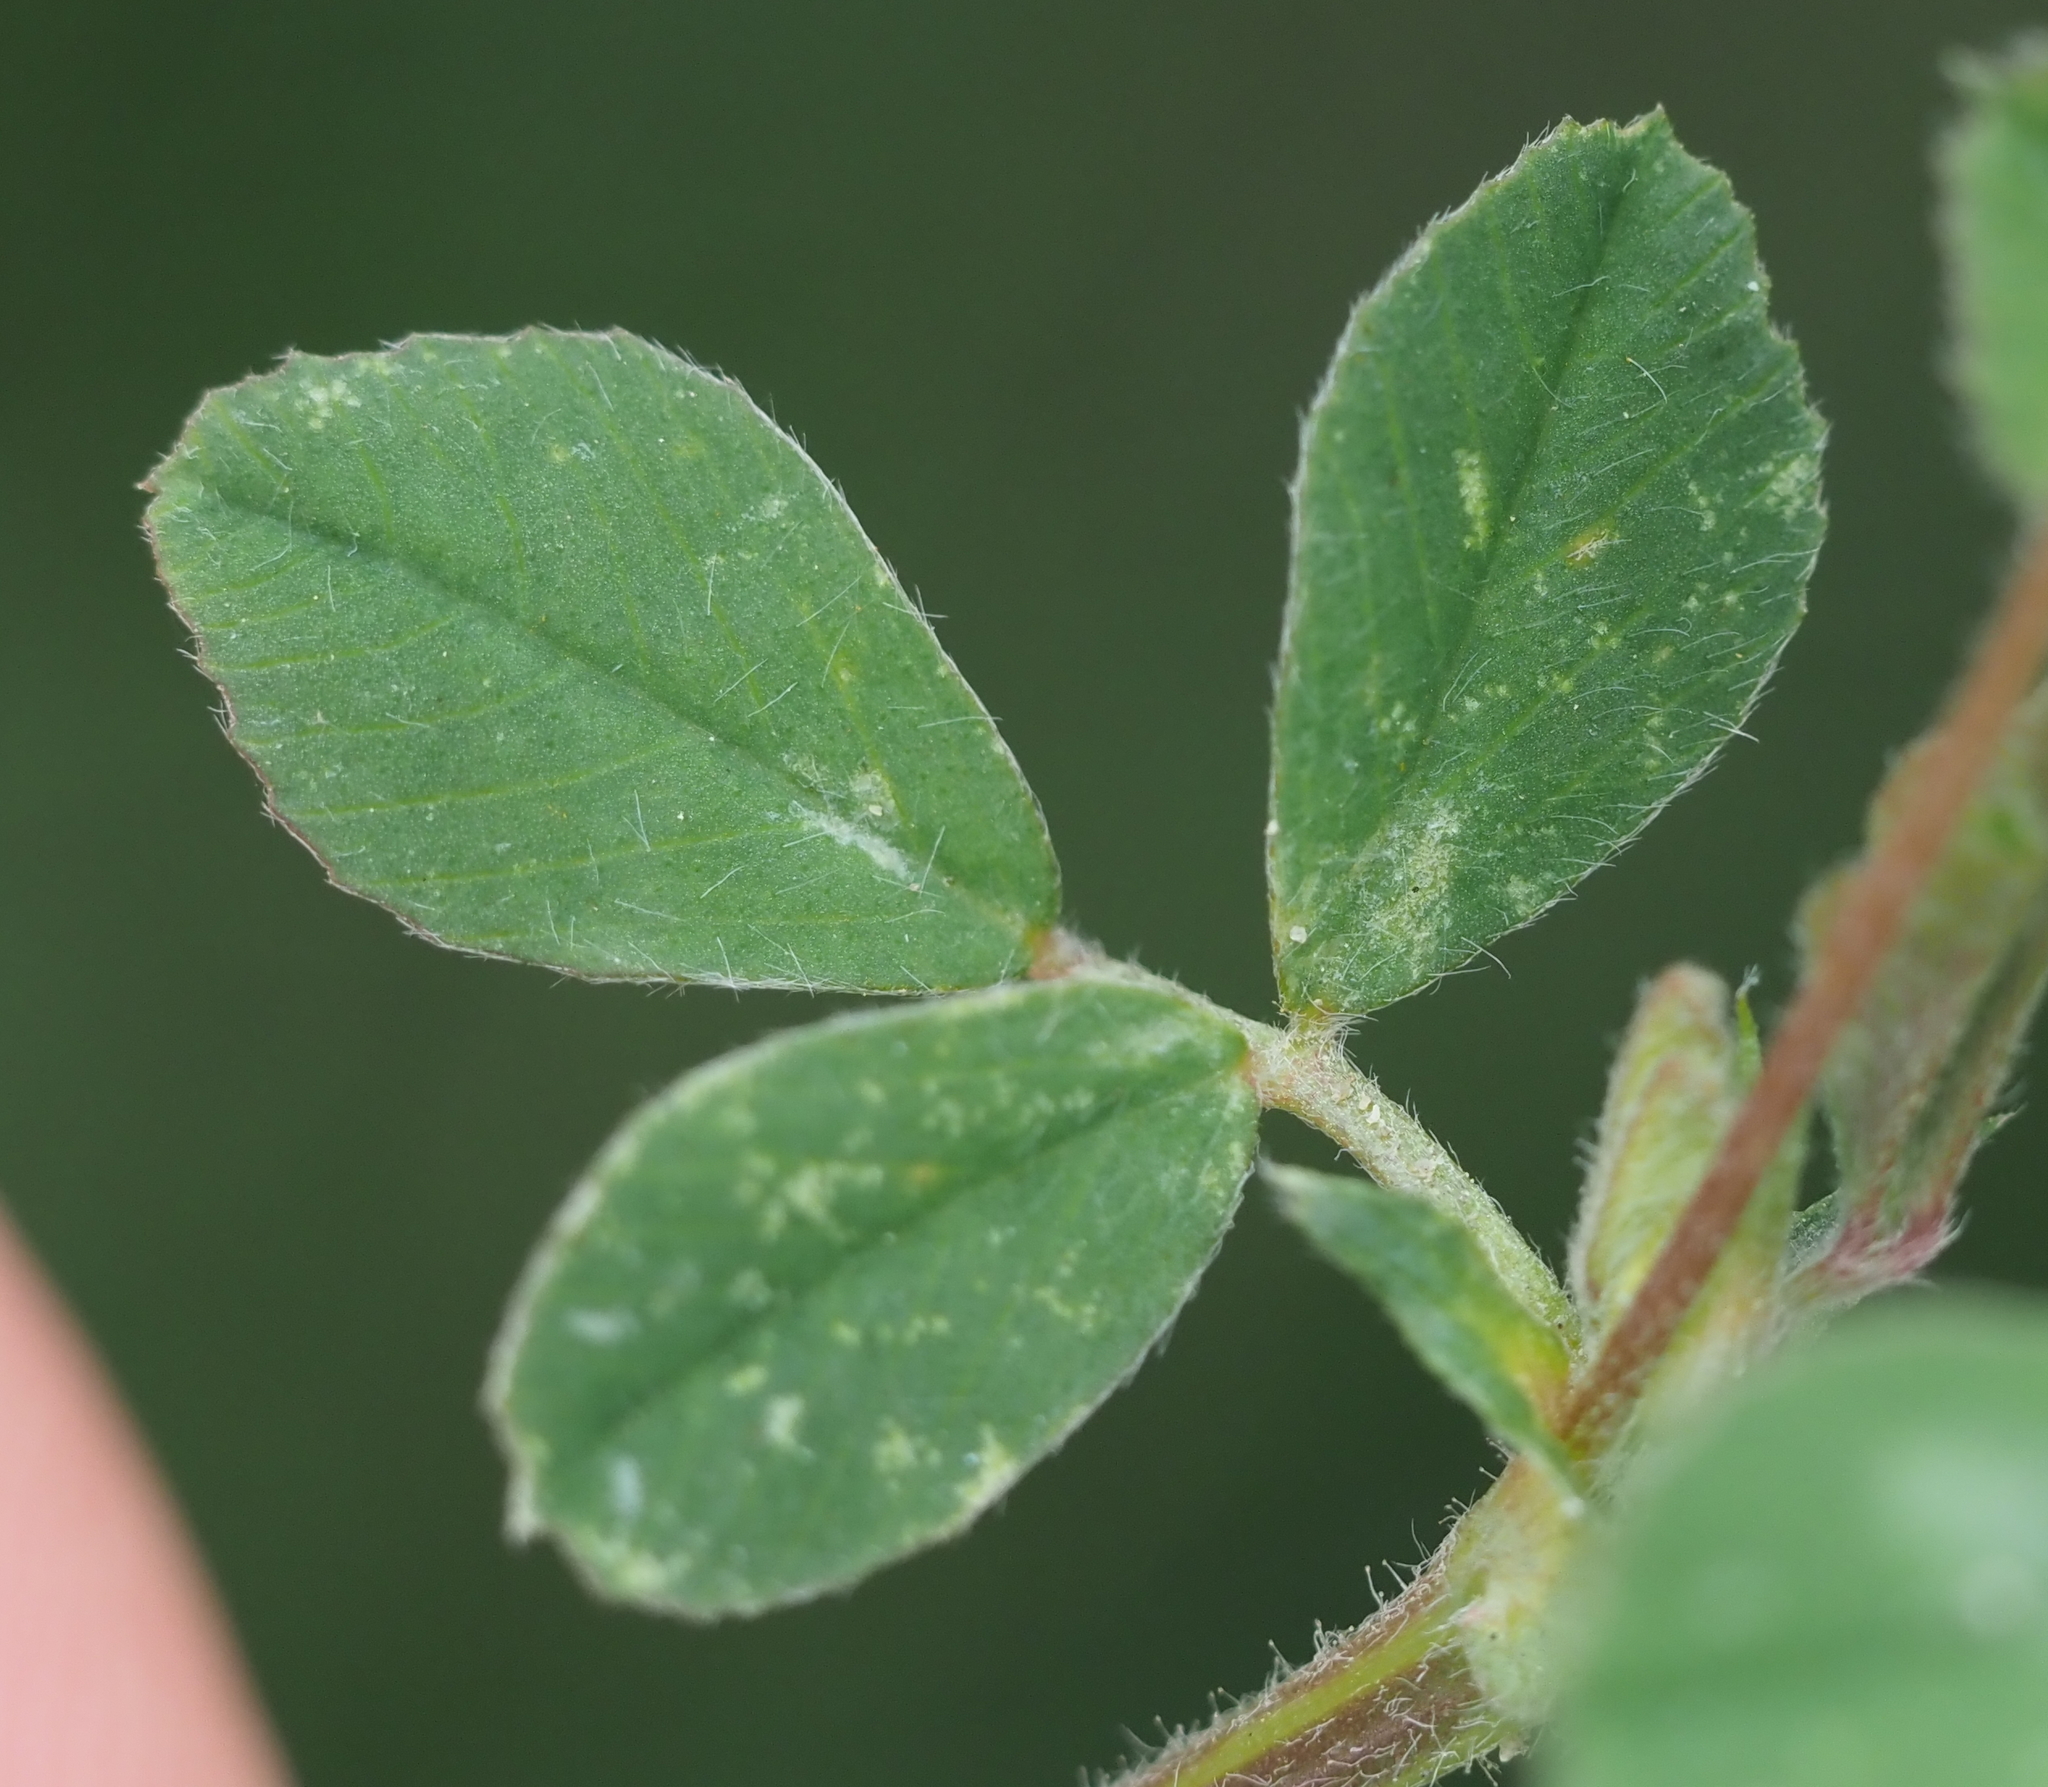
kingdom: Plantae
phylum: Tracheophyta
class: Magnoliopsida
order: Fabales
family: Fabaceae
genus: Medicago
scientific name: Medicago lupulina
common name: Black medick
